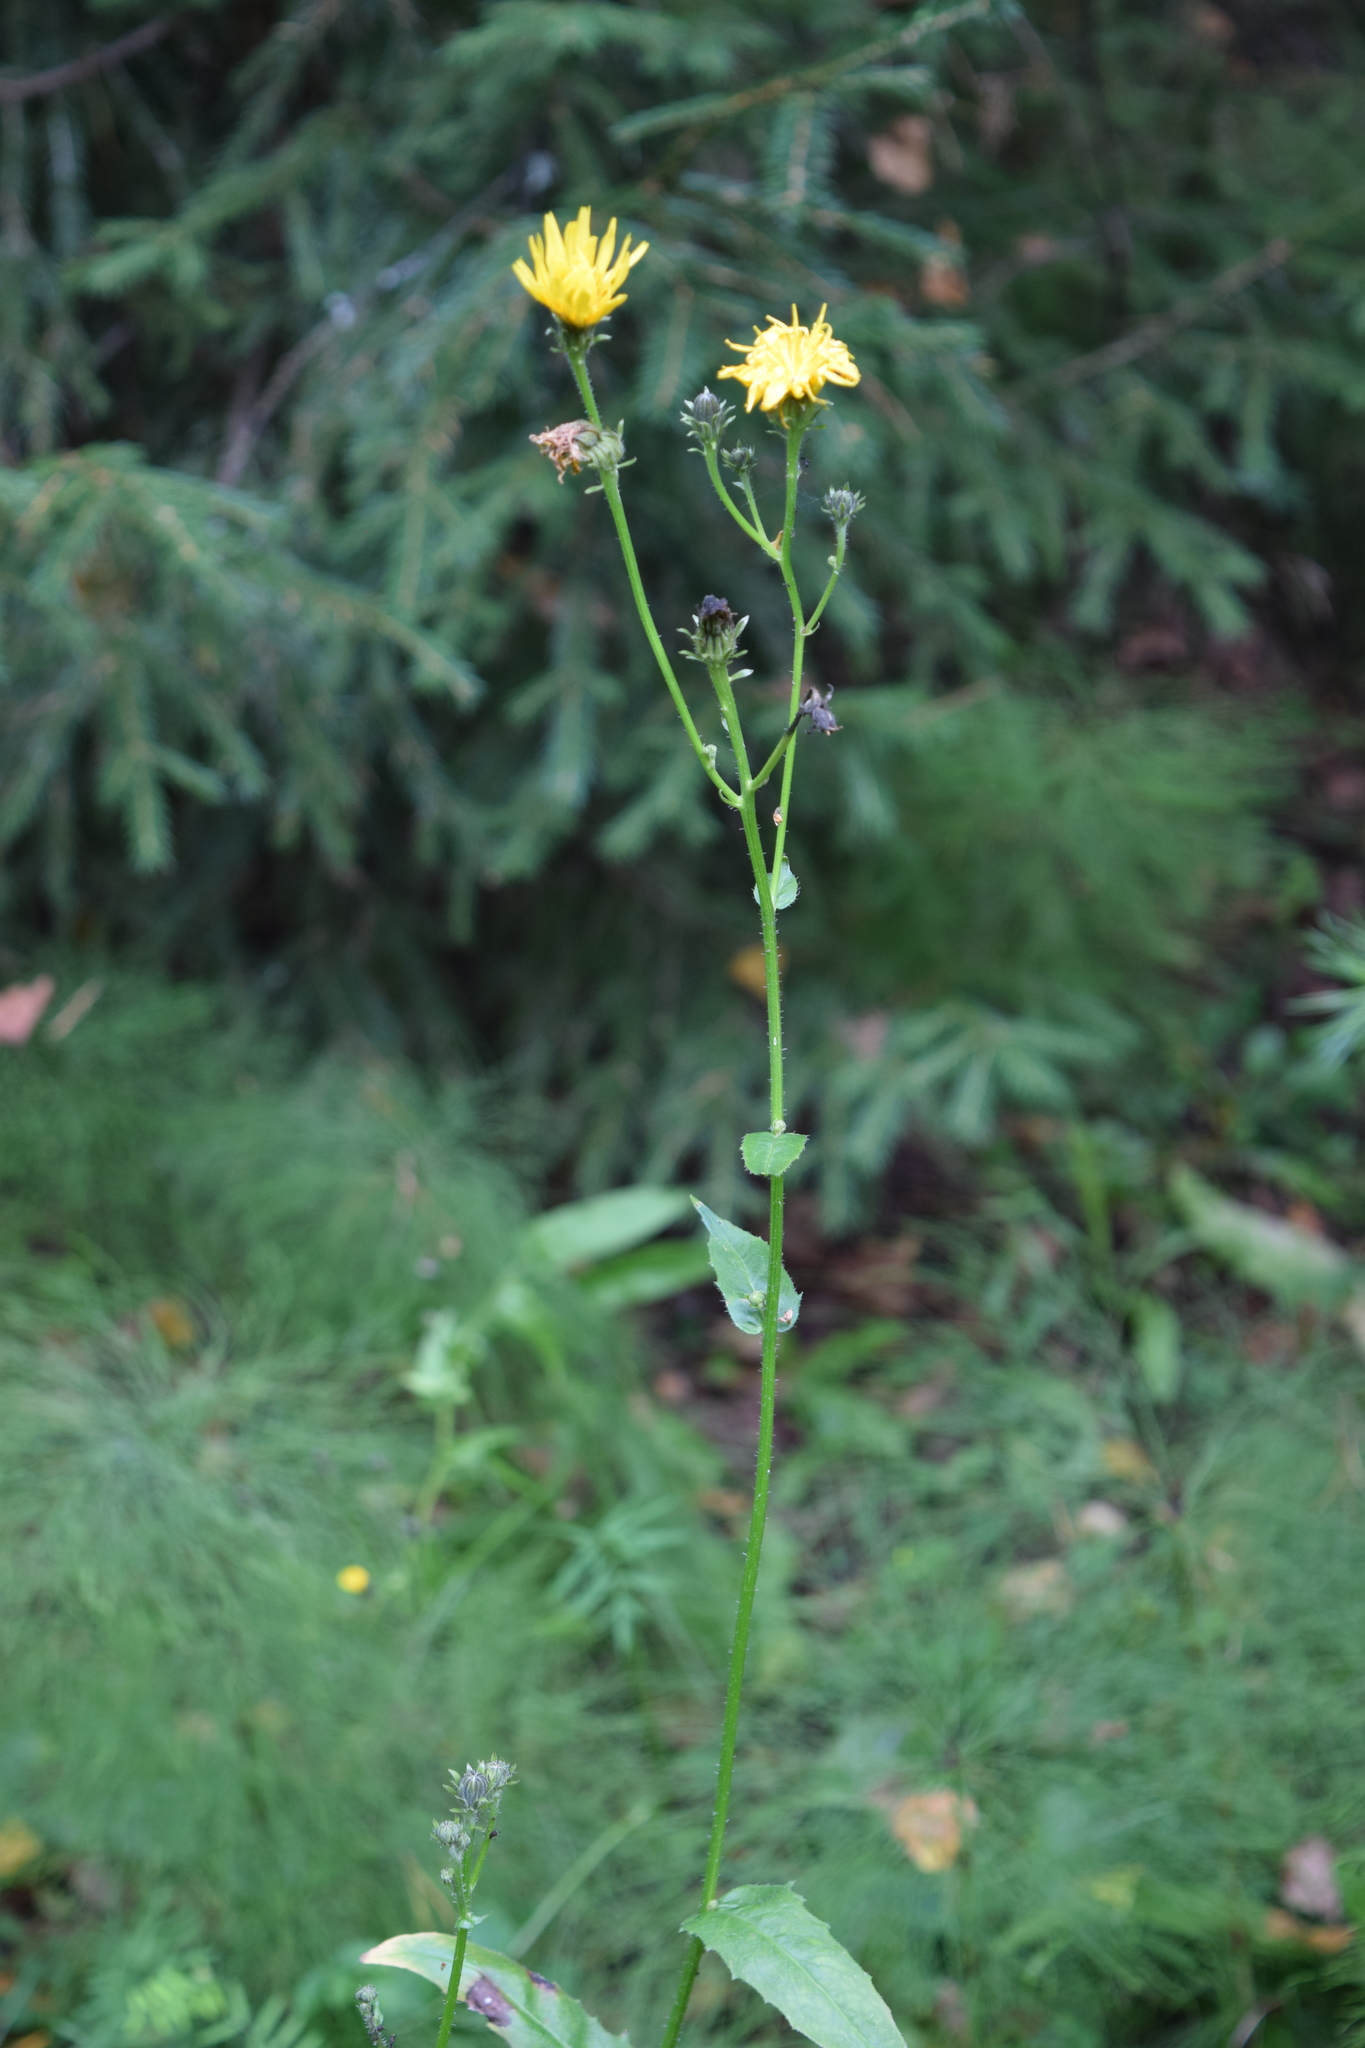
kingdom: Plantae
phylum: Tracheophyta
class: Magnoliopsida
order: Asterales
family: Asteraceae
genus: Picris
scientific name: Picris hieracioides
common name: Hawkweed oxtongue
